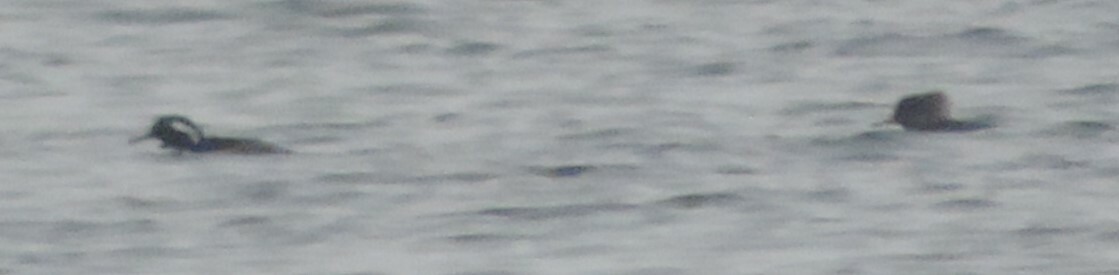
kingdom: Animalia
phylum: Chordata
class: Aves
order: Anseriformes
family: Anatidae
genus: Lophodytes
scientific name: Lophodytes cucullatus
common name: Hooded merganser
